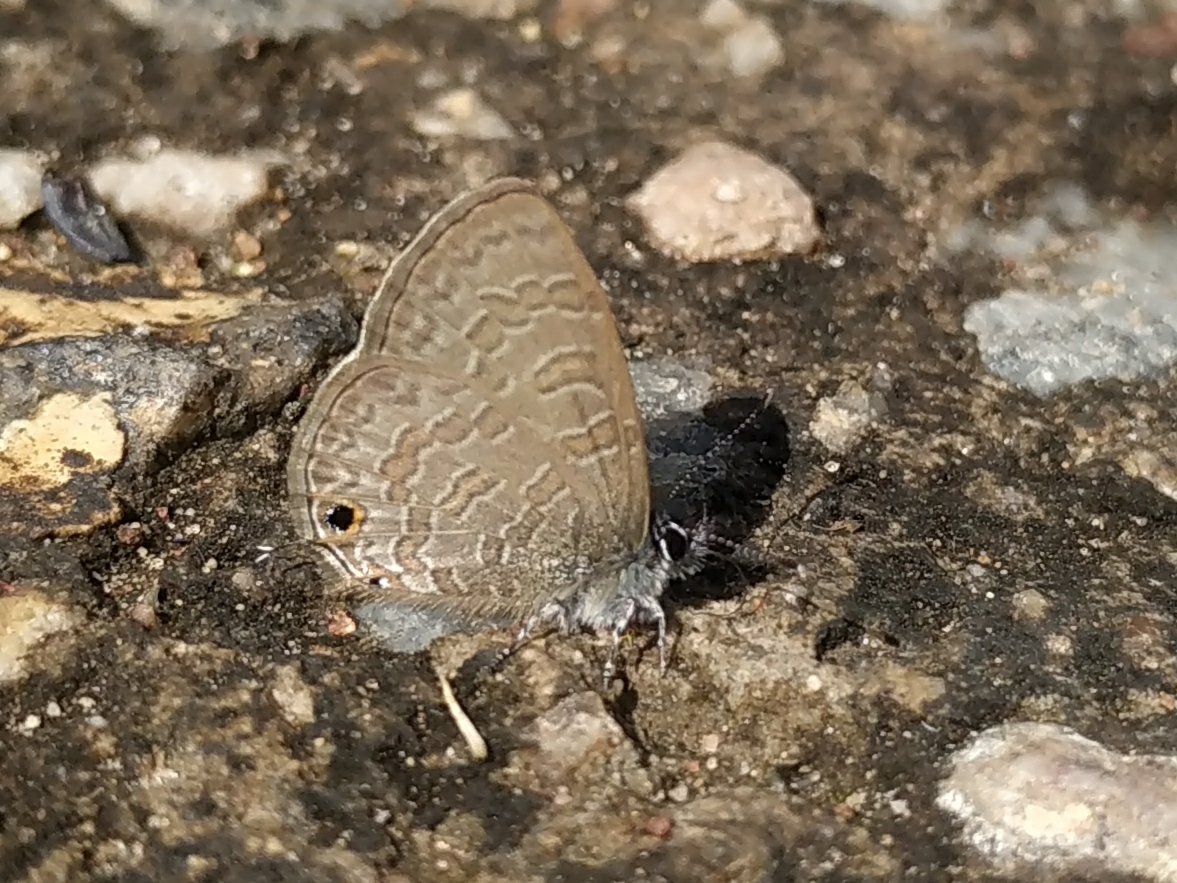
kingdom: Animalia
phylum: Arthropoda
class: Insecta
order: Lepidoptera
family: Lycaenidae
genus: Prosotas
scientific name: Prosotas nora
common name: Common line blue
